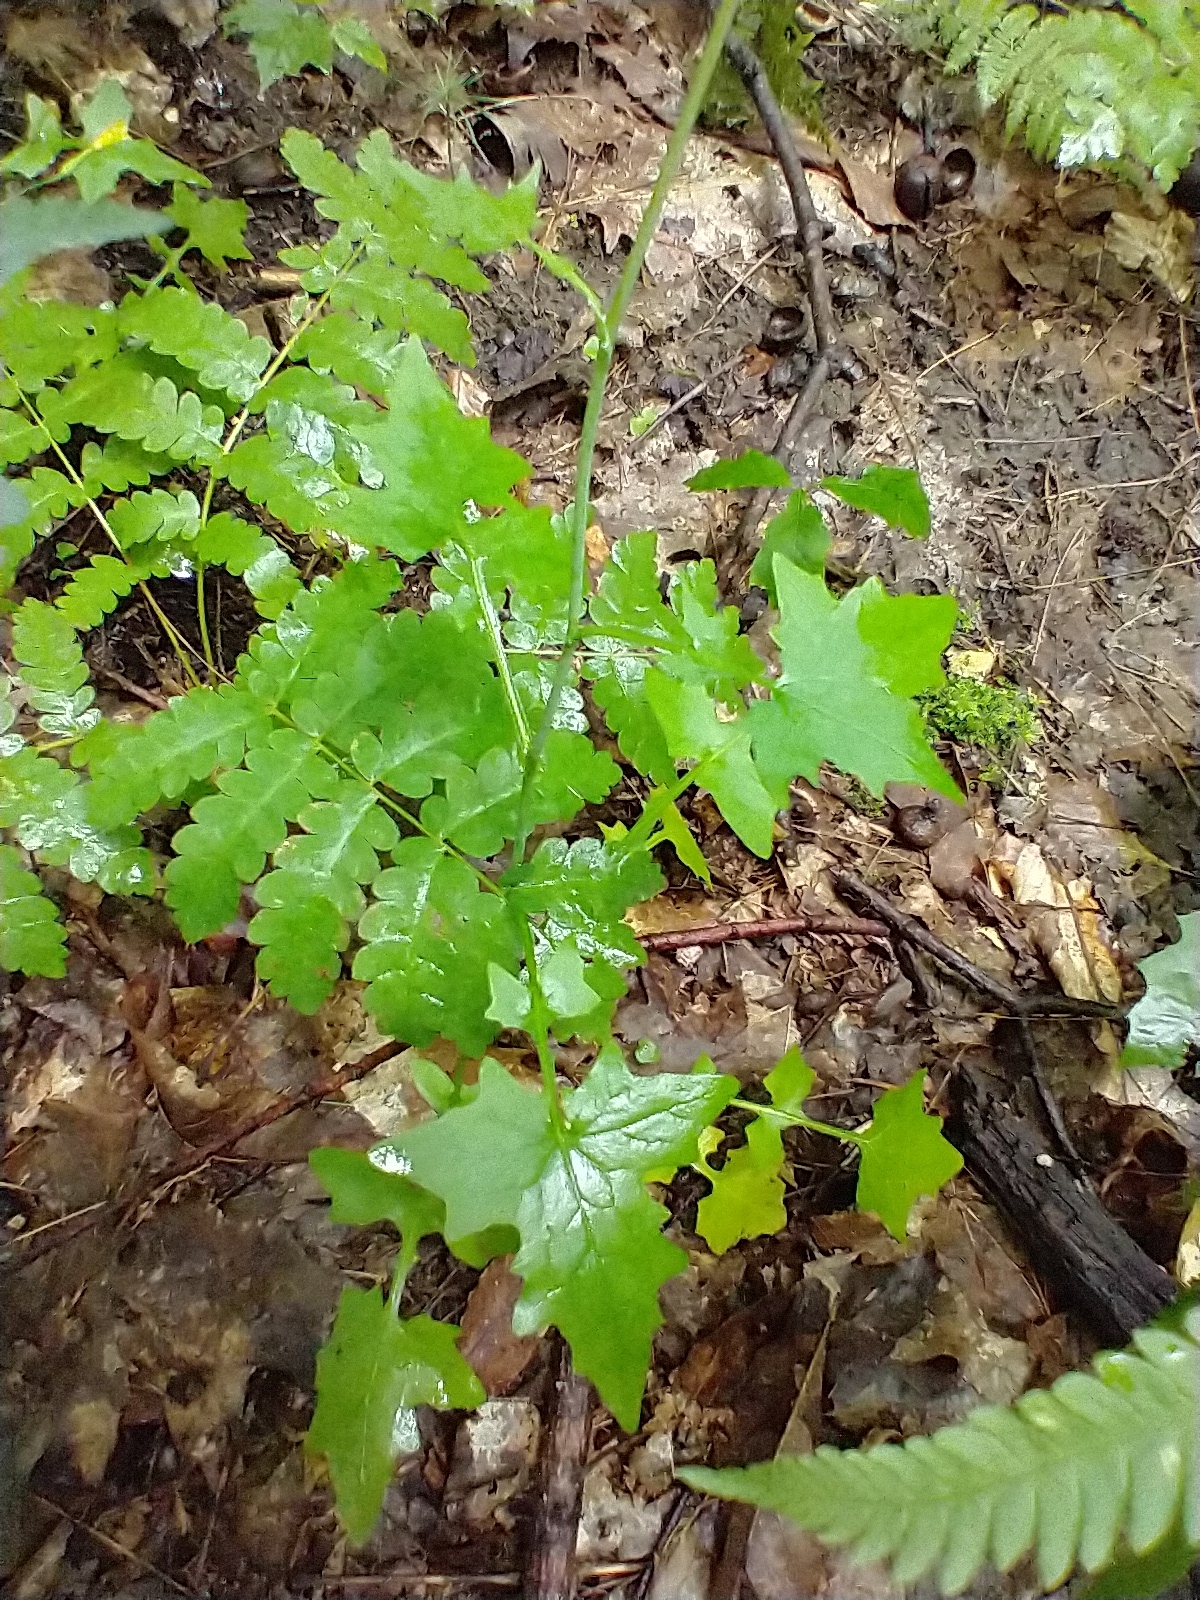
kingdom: Plantae
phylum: Tracheophyta
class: Magnoliopsida
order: Asterales
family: Asteraceae
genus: Mycelis
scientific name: Mycelis muralis
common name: Wall lettuce
